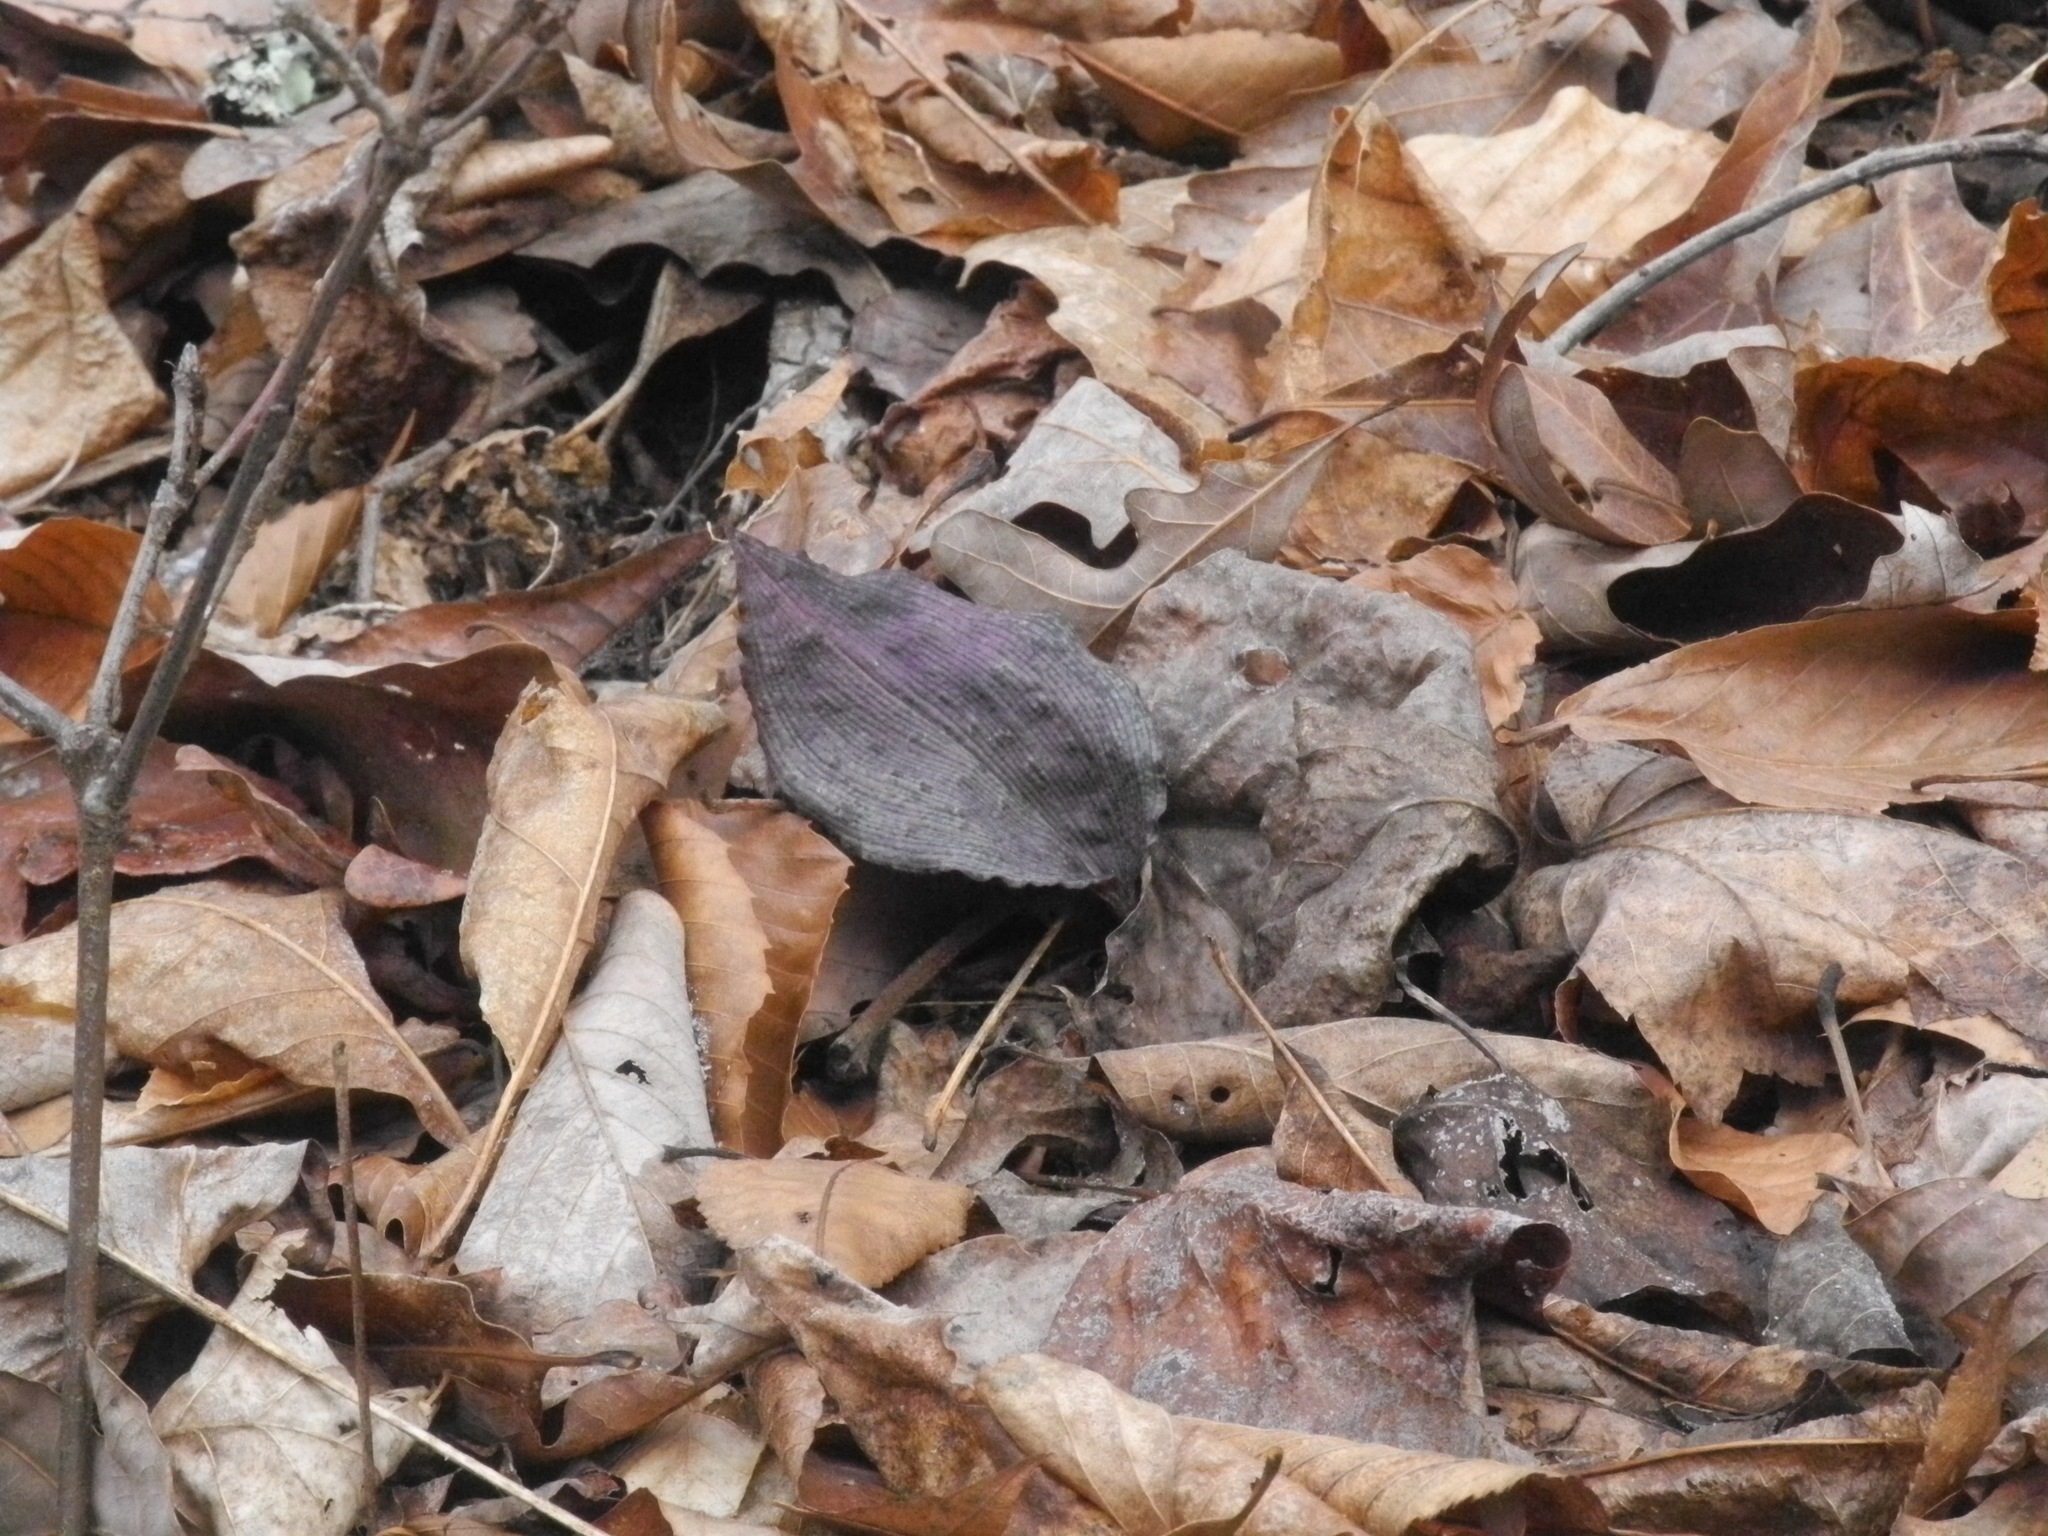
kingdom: Plantae
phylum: Tracheophyta
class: Liliopsida
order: Asparagales
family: Orchidaceae
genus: Tipularia
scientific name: Tipularia discolor
